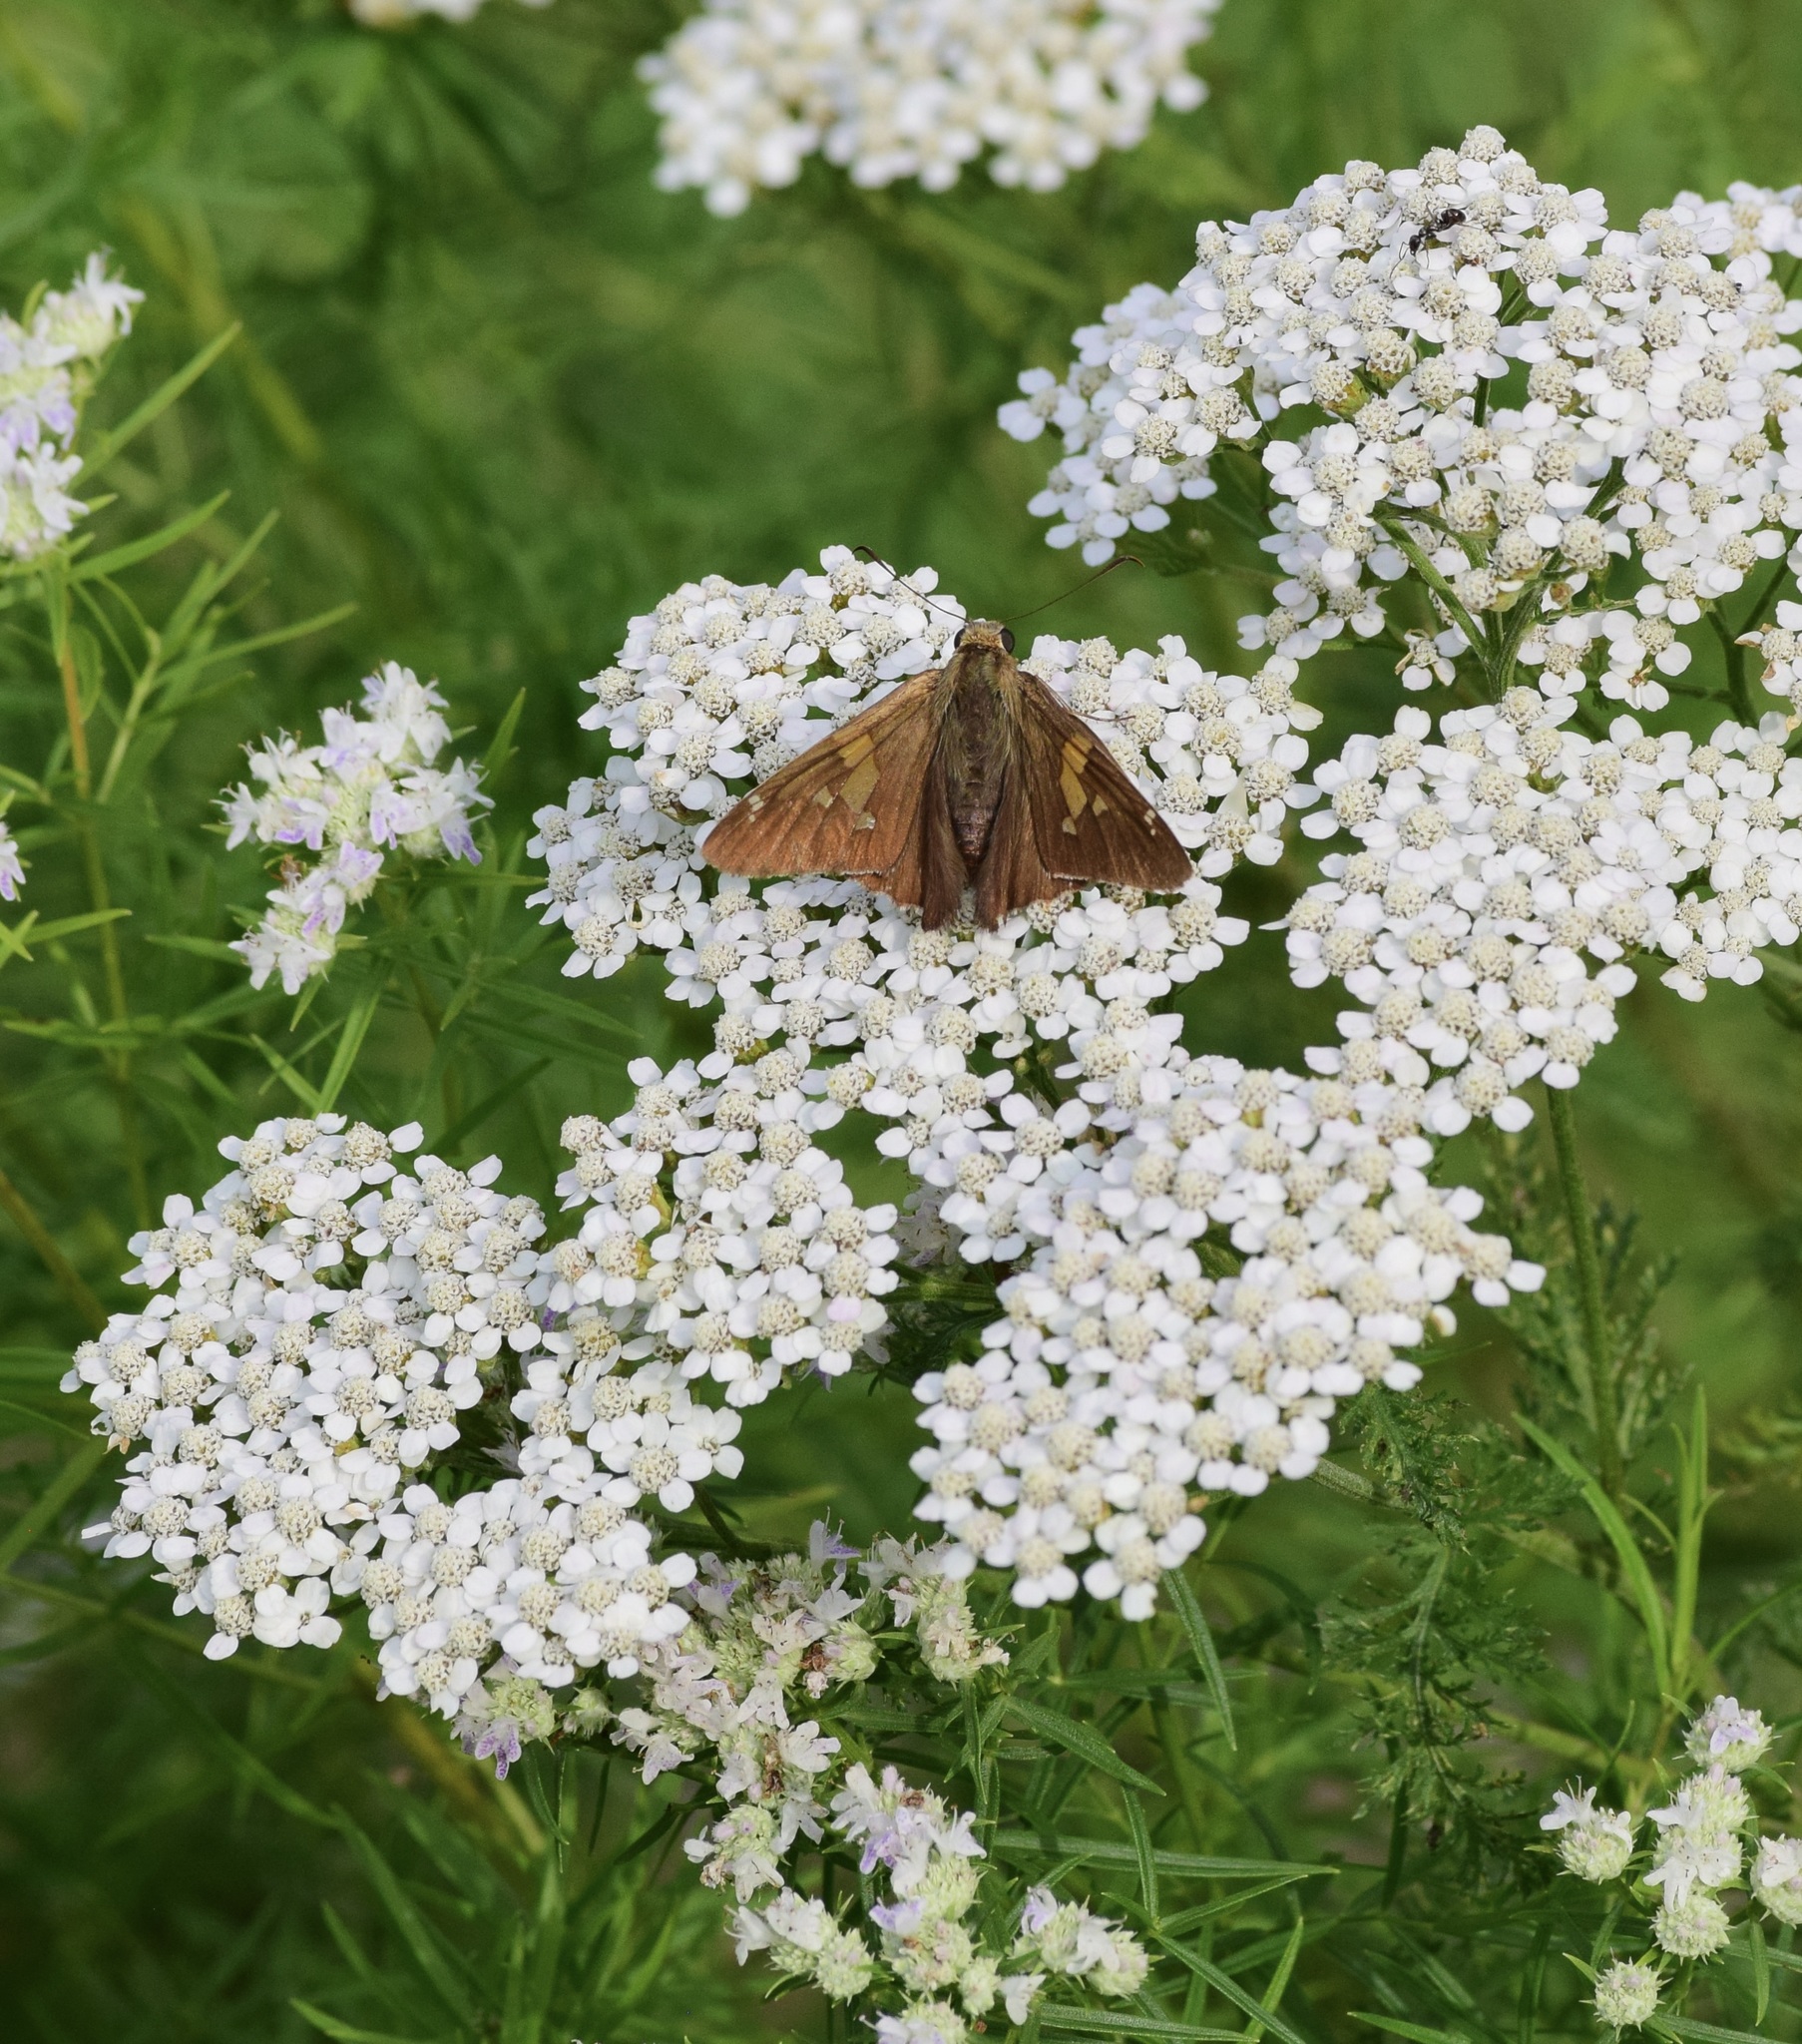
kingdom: Animalia
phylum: Arthropoda
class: Insecta
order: Lepidoptera
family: Hesperiidae
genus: Epargyreus
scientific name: Epargyreus clarus
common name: Silver-spotted skipper
